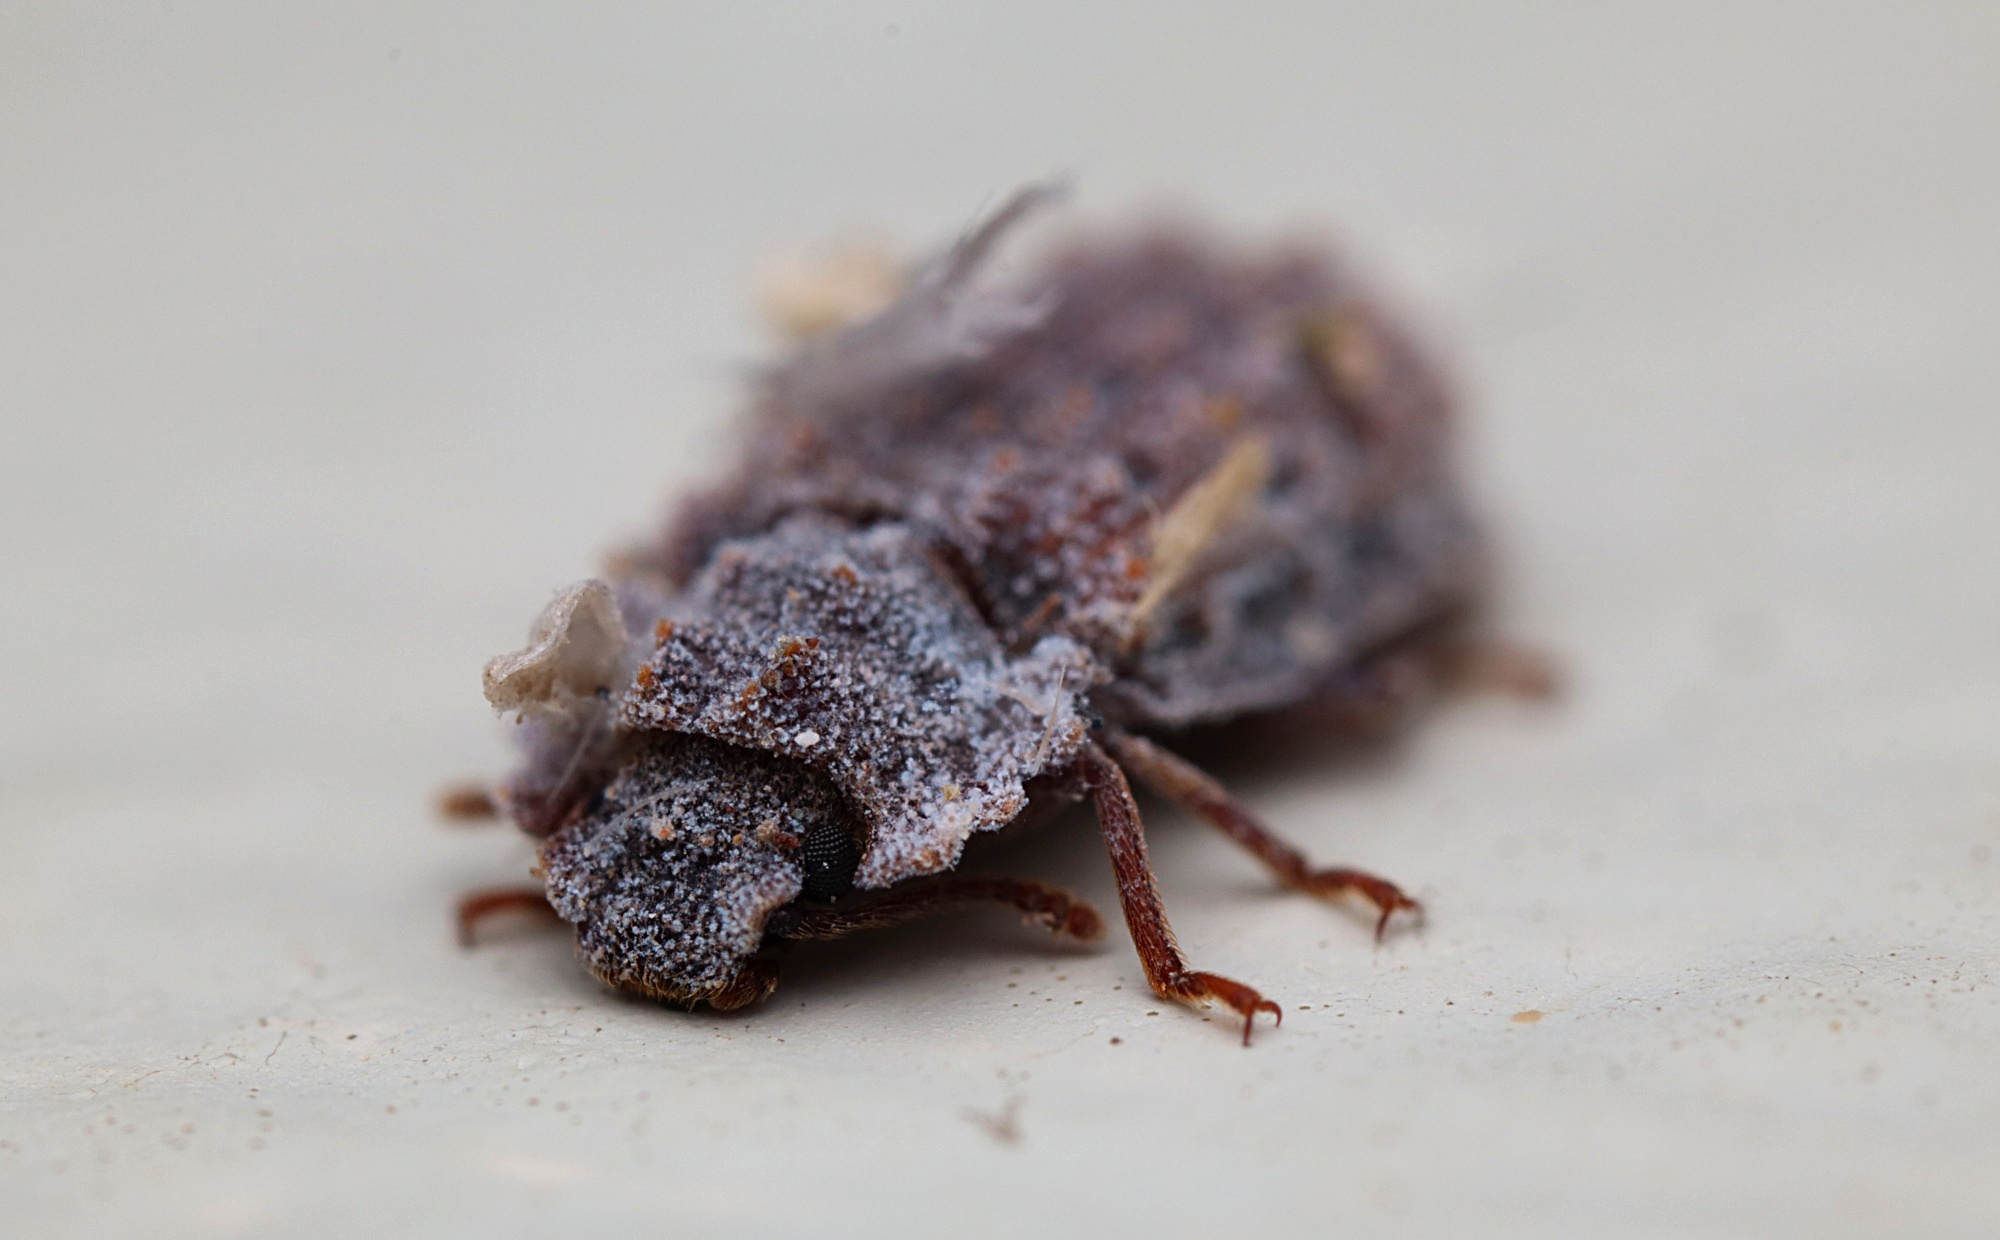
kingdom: Animalia
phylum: Arthropoda
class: Insecta
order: Coleoptera
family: Zopheridae
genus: Pristoderus
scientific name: Pristoderus
